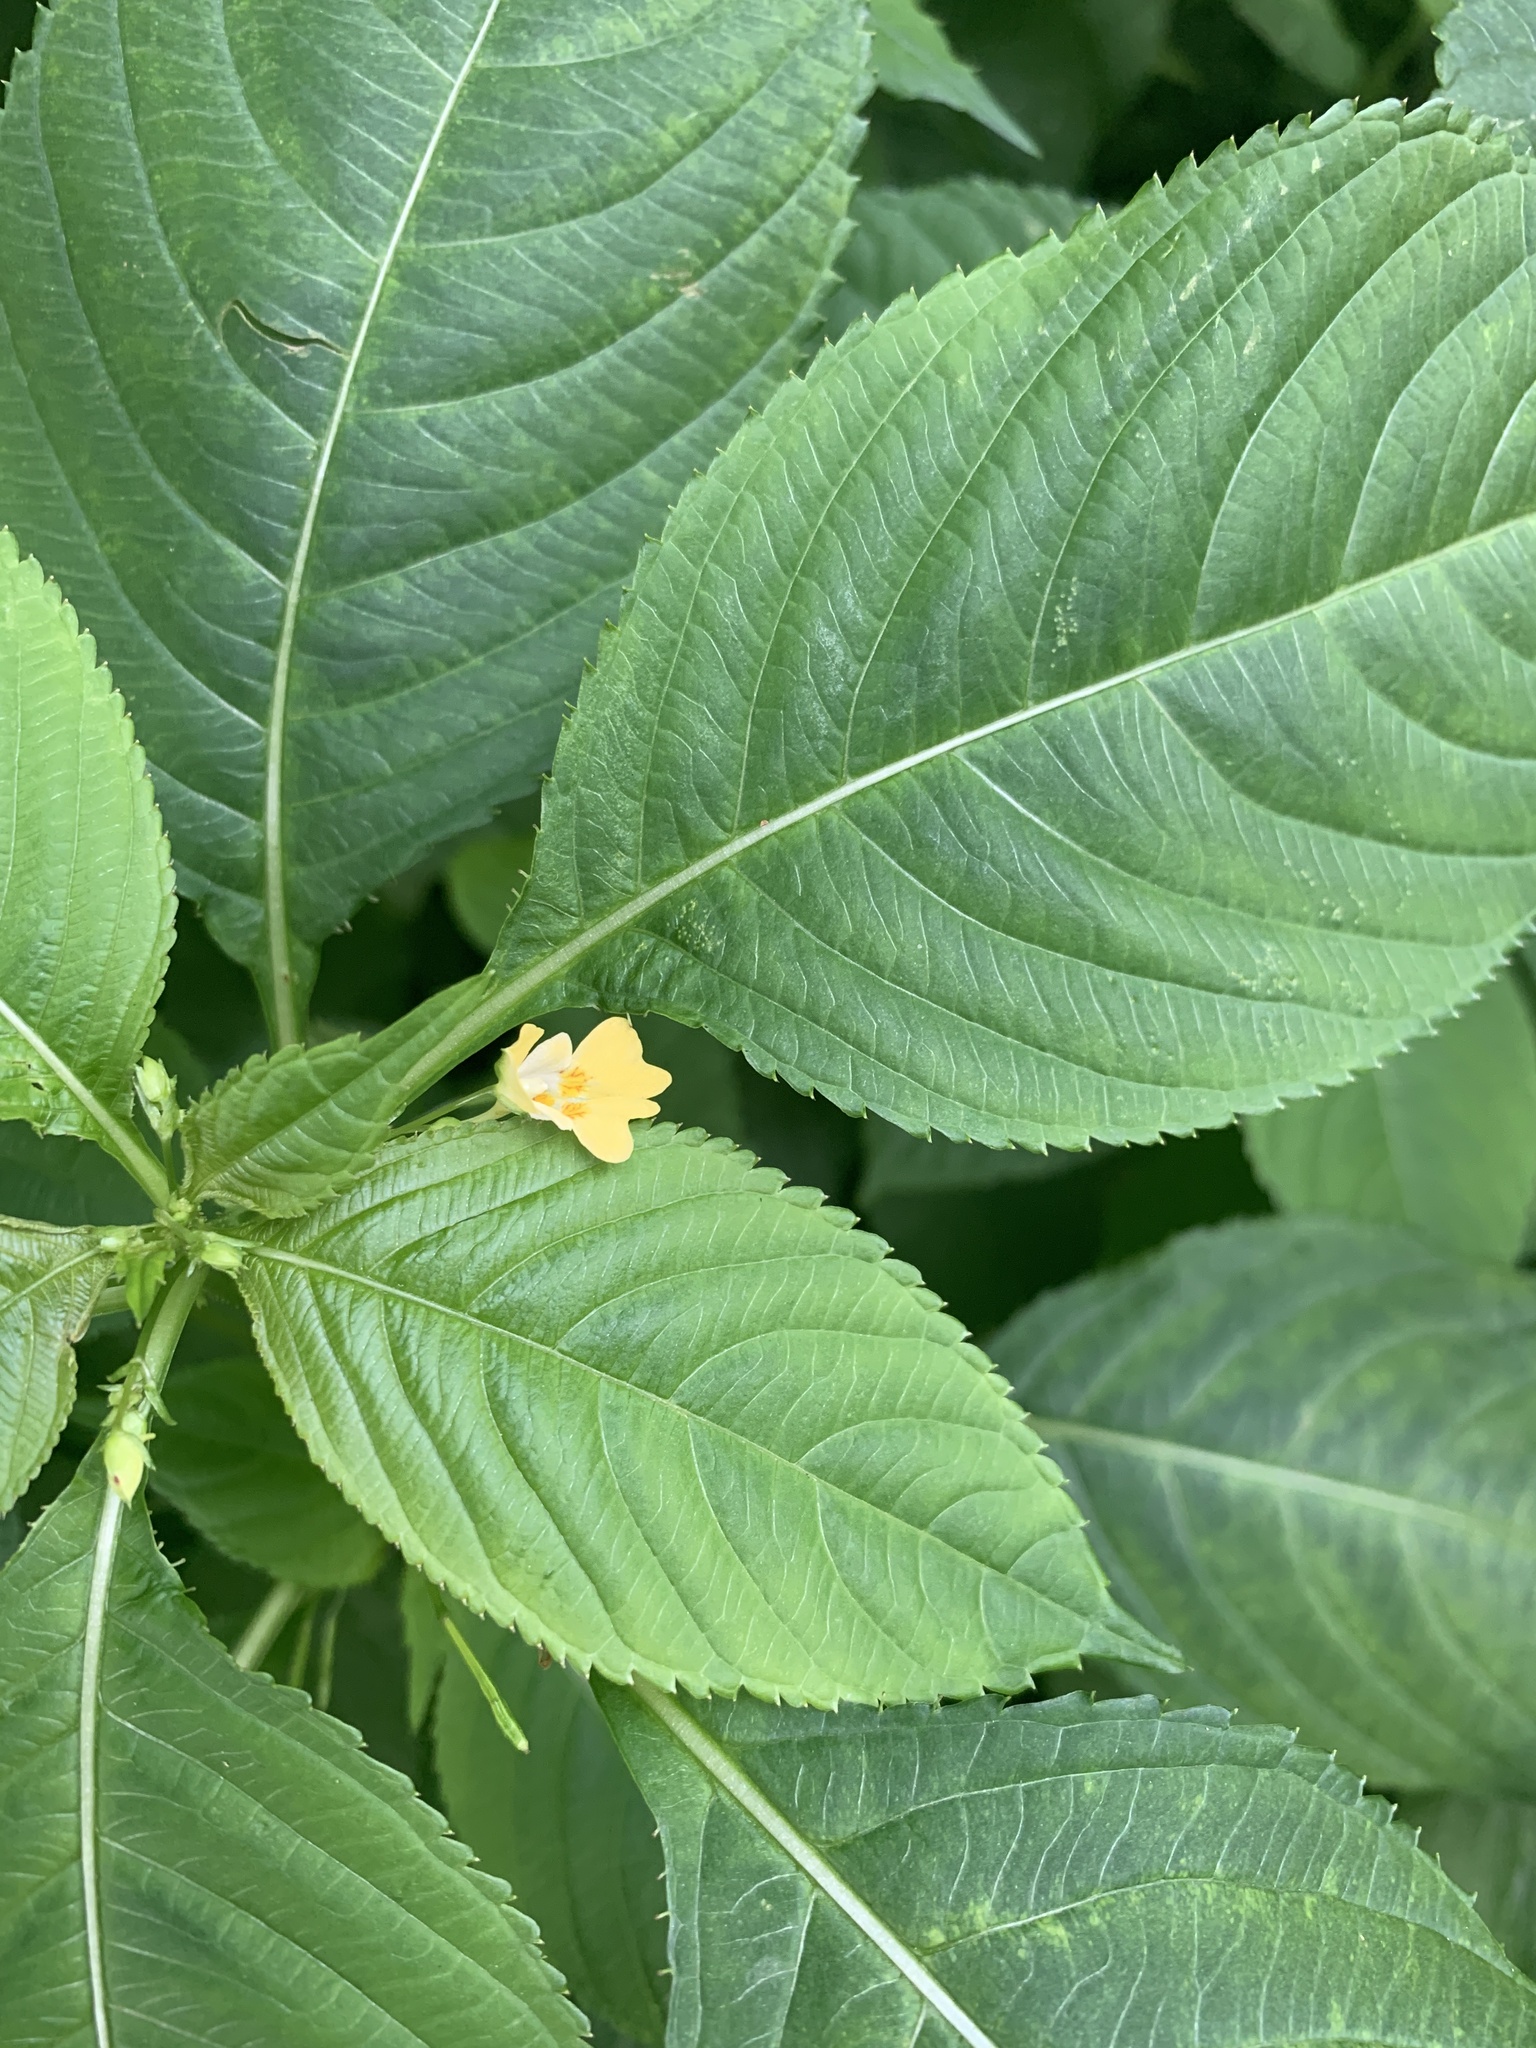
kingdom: Plantae
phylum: Tracheophyta
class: Magnoliopsida
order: Ericales
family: Balsaminaceae
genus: Impatiens
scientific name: Impatiens parviflora
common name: Small balsam
